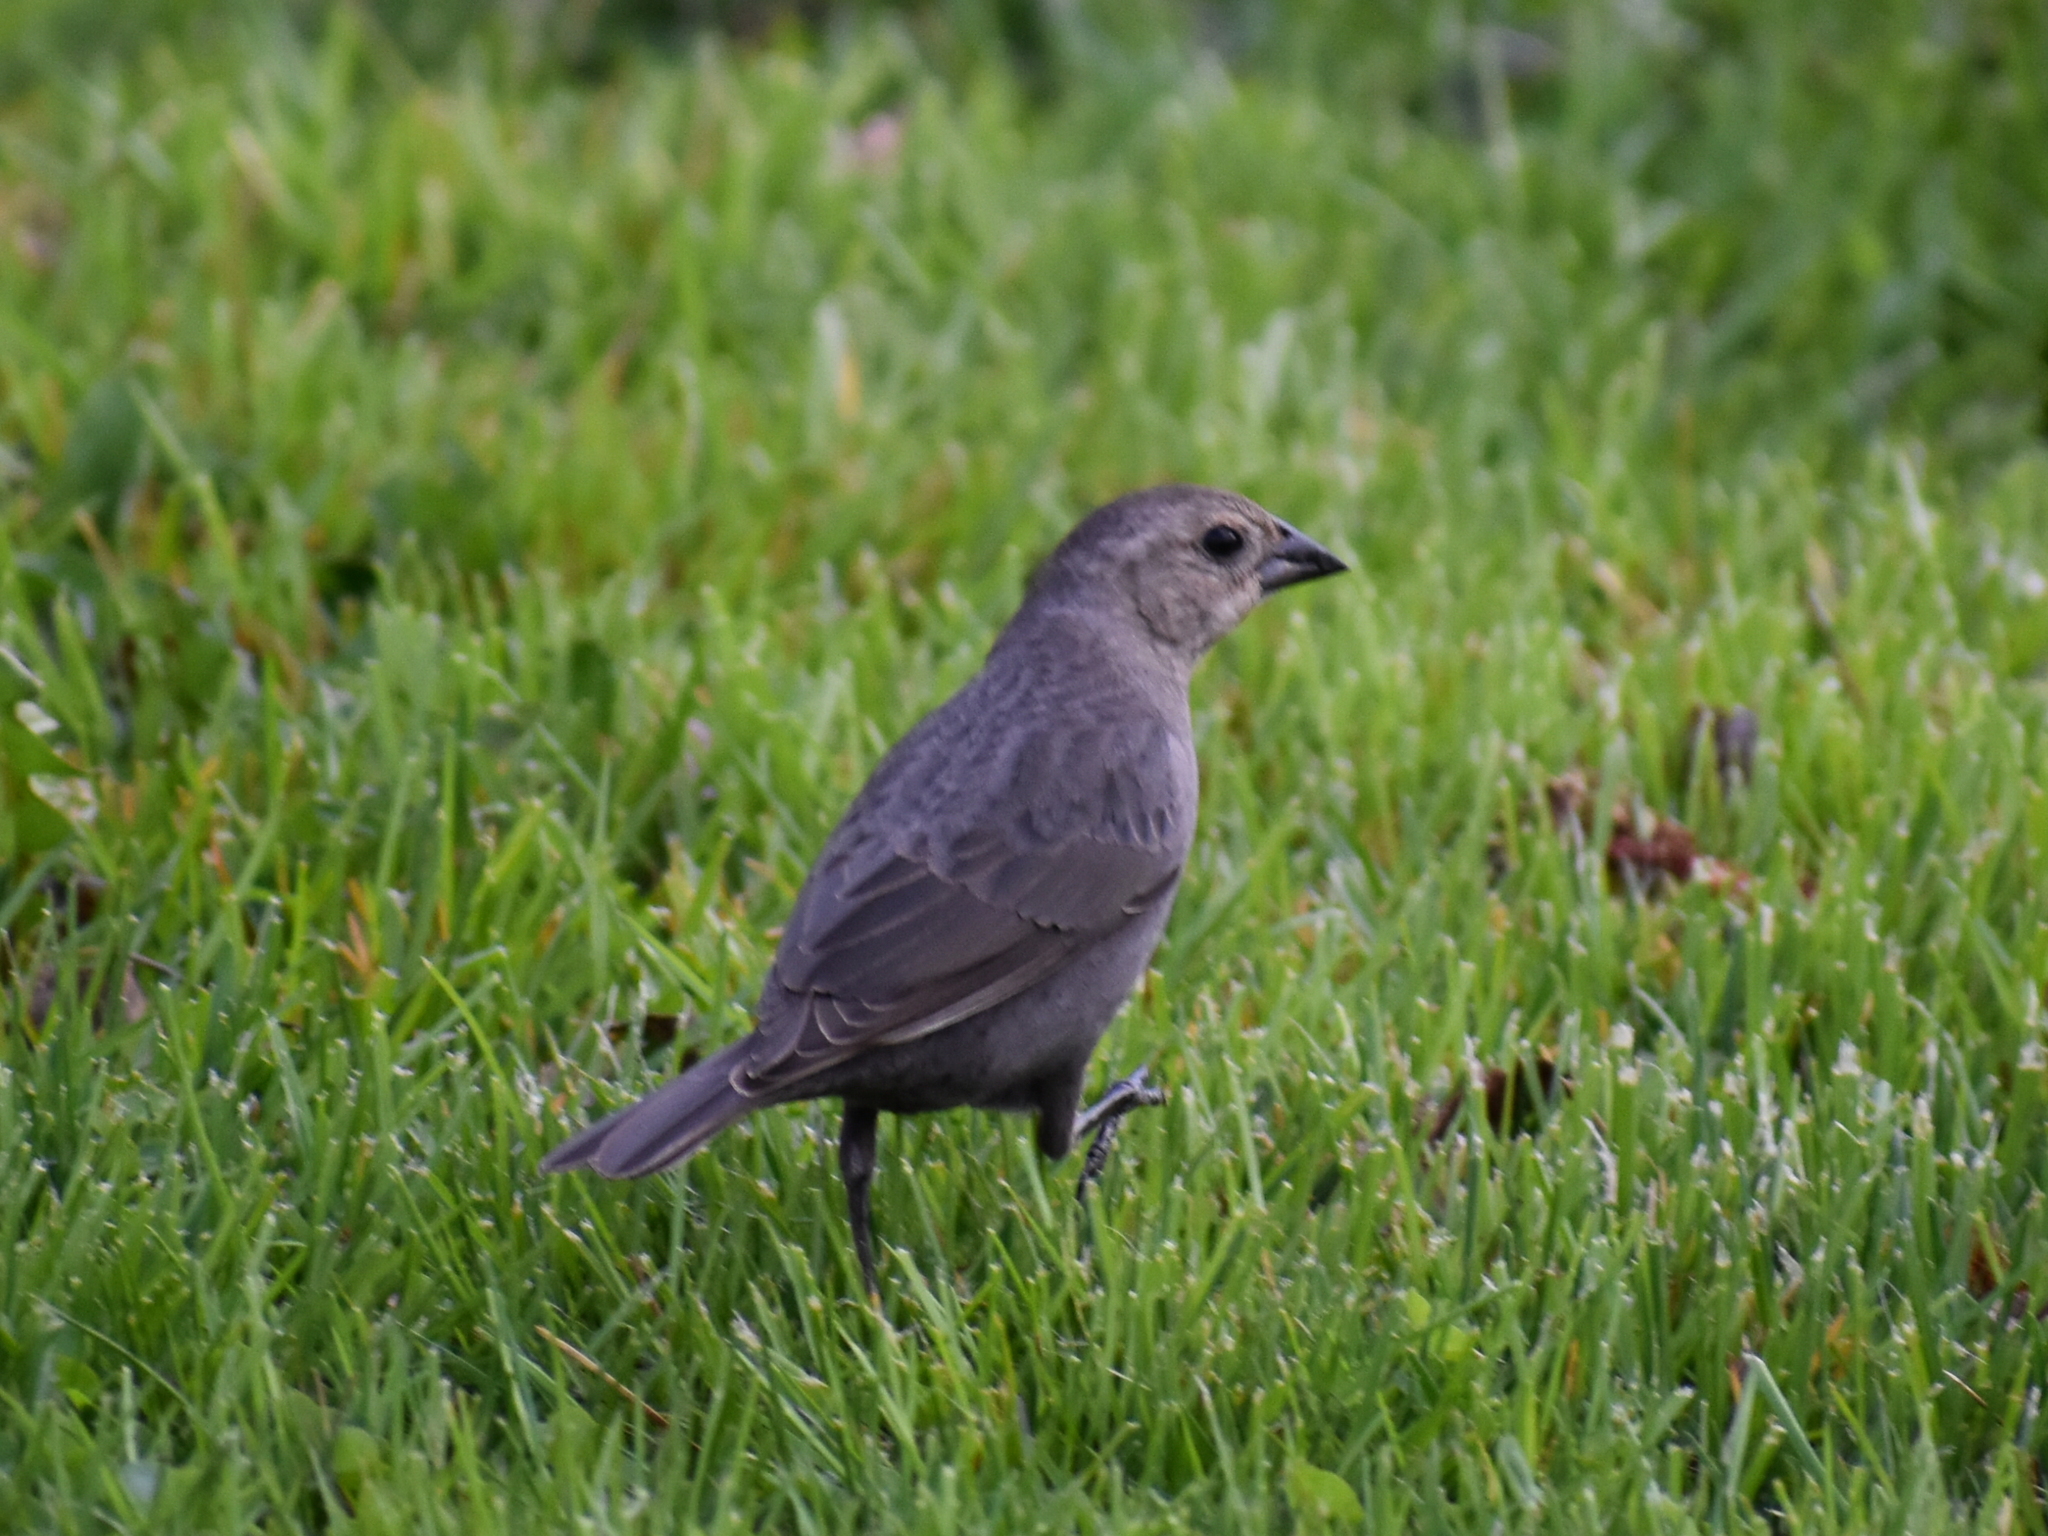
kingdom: Animalia
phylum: Chordata
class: Aves
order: Passeriformes
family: Icteridae
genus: Molothrus
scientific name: Molothrus ater
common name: Brown-headed cowbird
